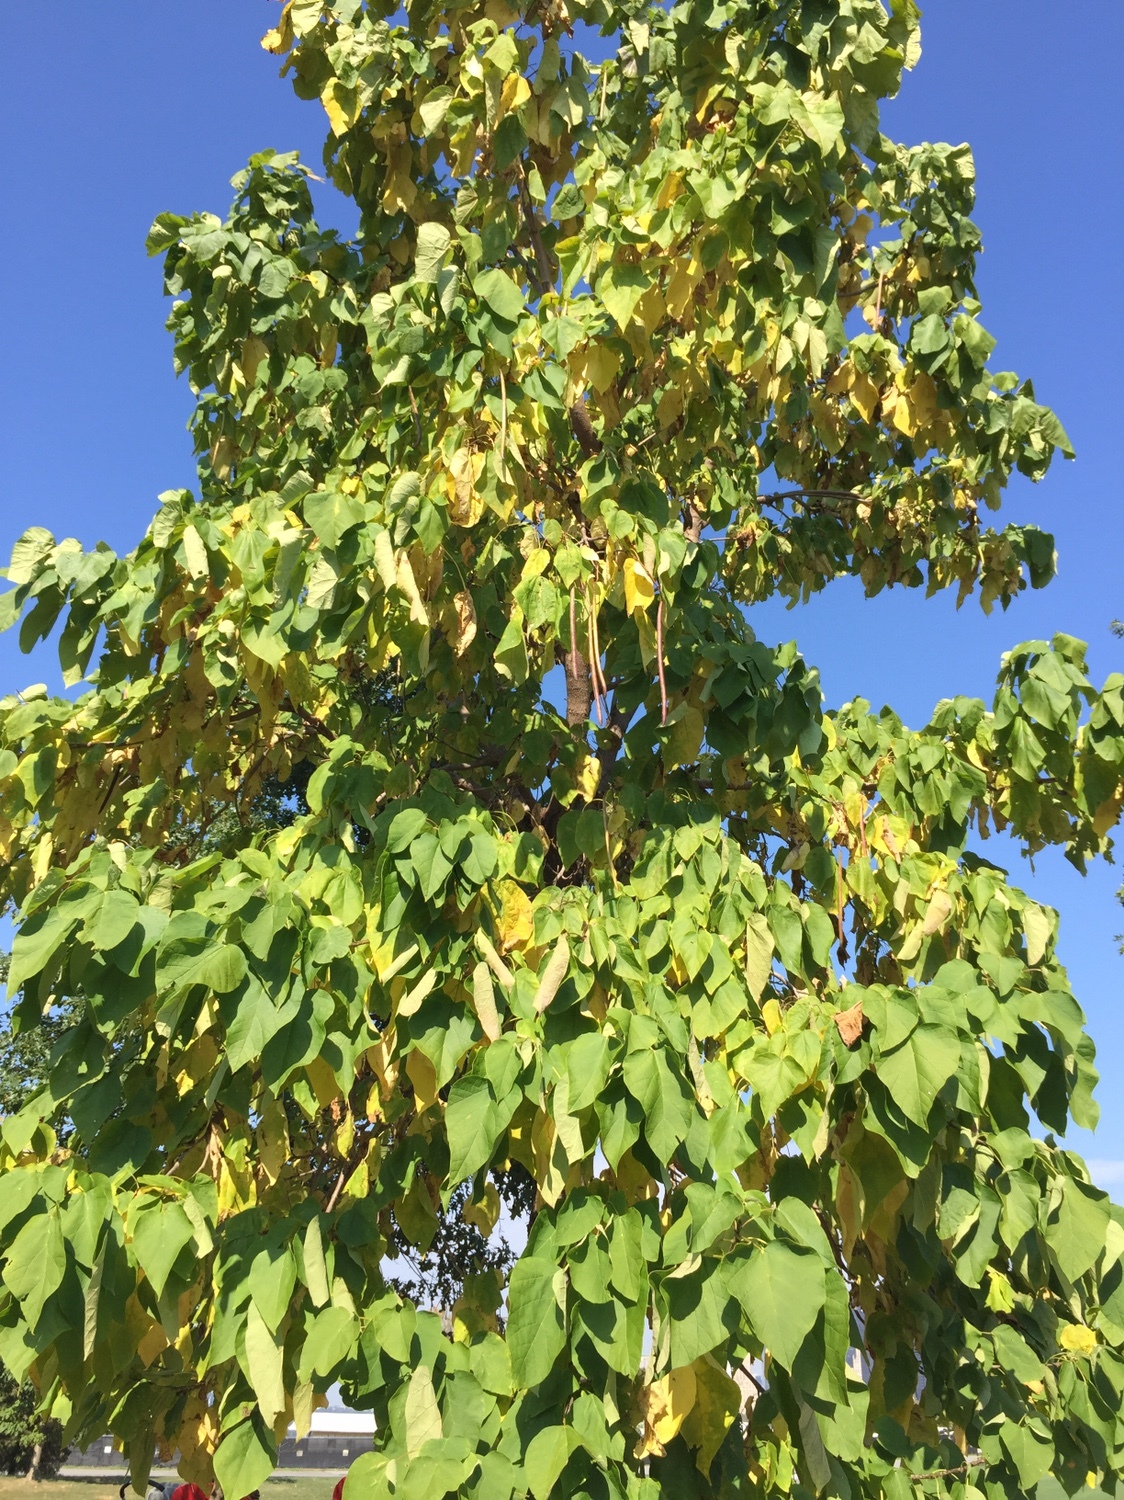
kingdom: Plantae
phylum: Tracheophyta
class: Magnoliopsida
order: Lamiales
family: Bignoniaceae
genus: Catalpa
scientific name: Catalpa speciosa
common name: Northern catalpa
